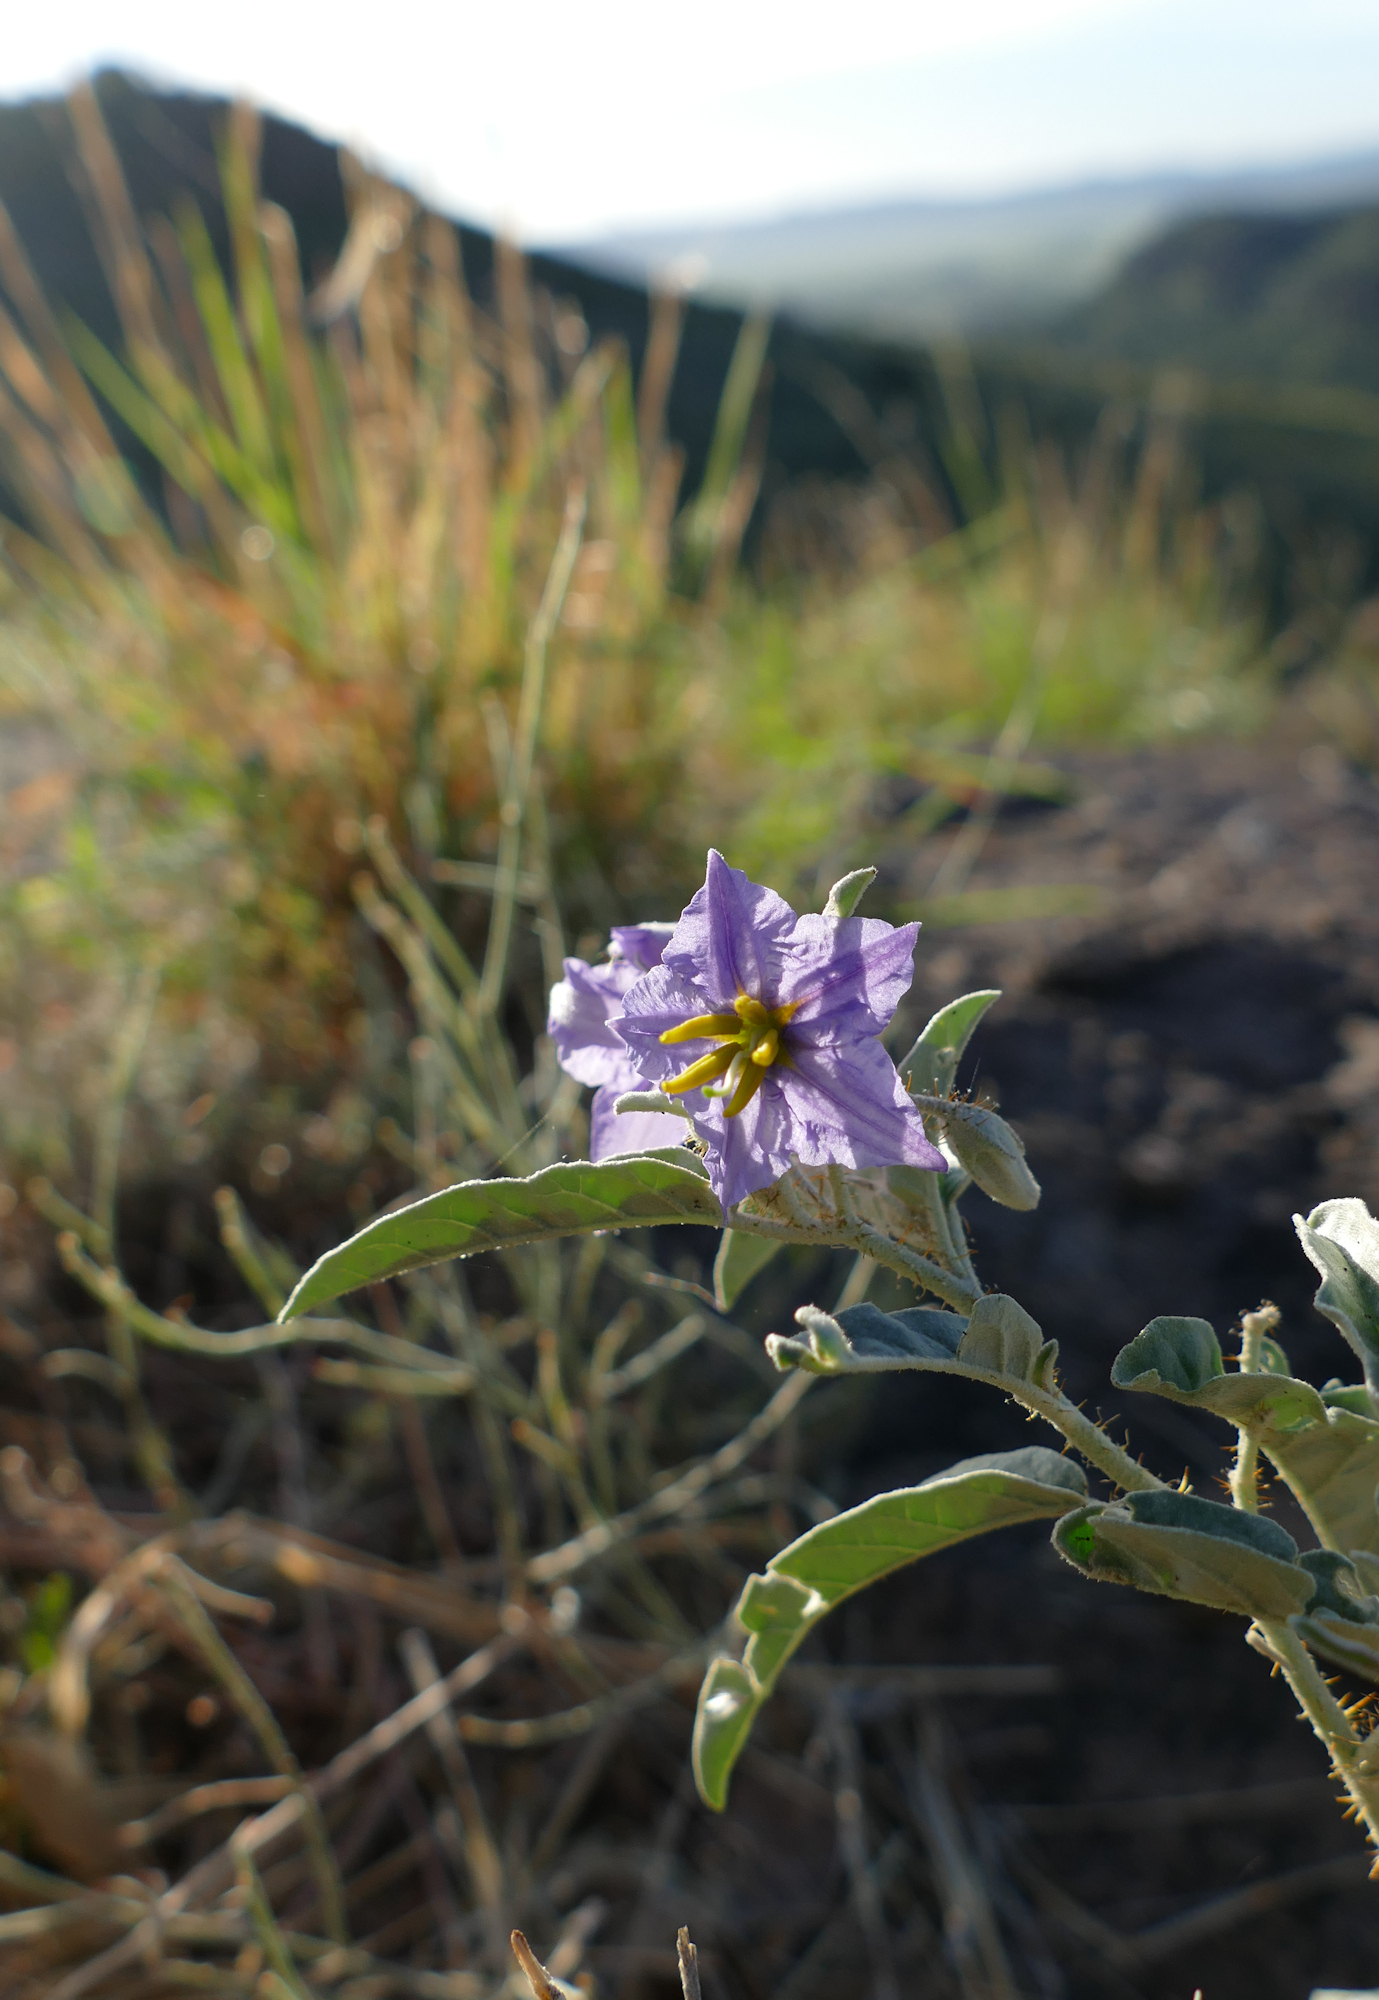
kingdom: Plantae
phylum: Tracheophyta
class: Magnoliopsida
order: Solanales
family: Solanaceae
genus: Solanum
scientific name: Solanum elaeagnifolium
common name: Silverleaf nightshade
